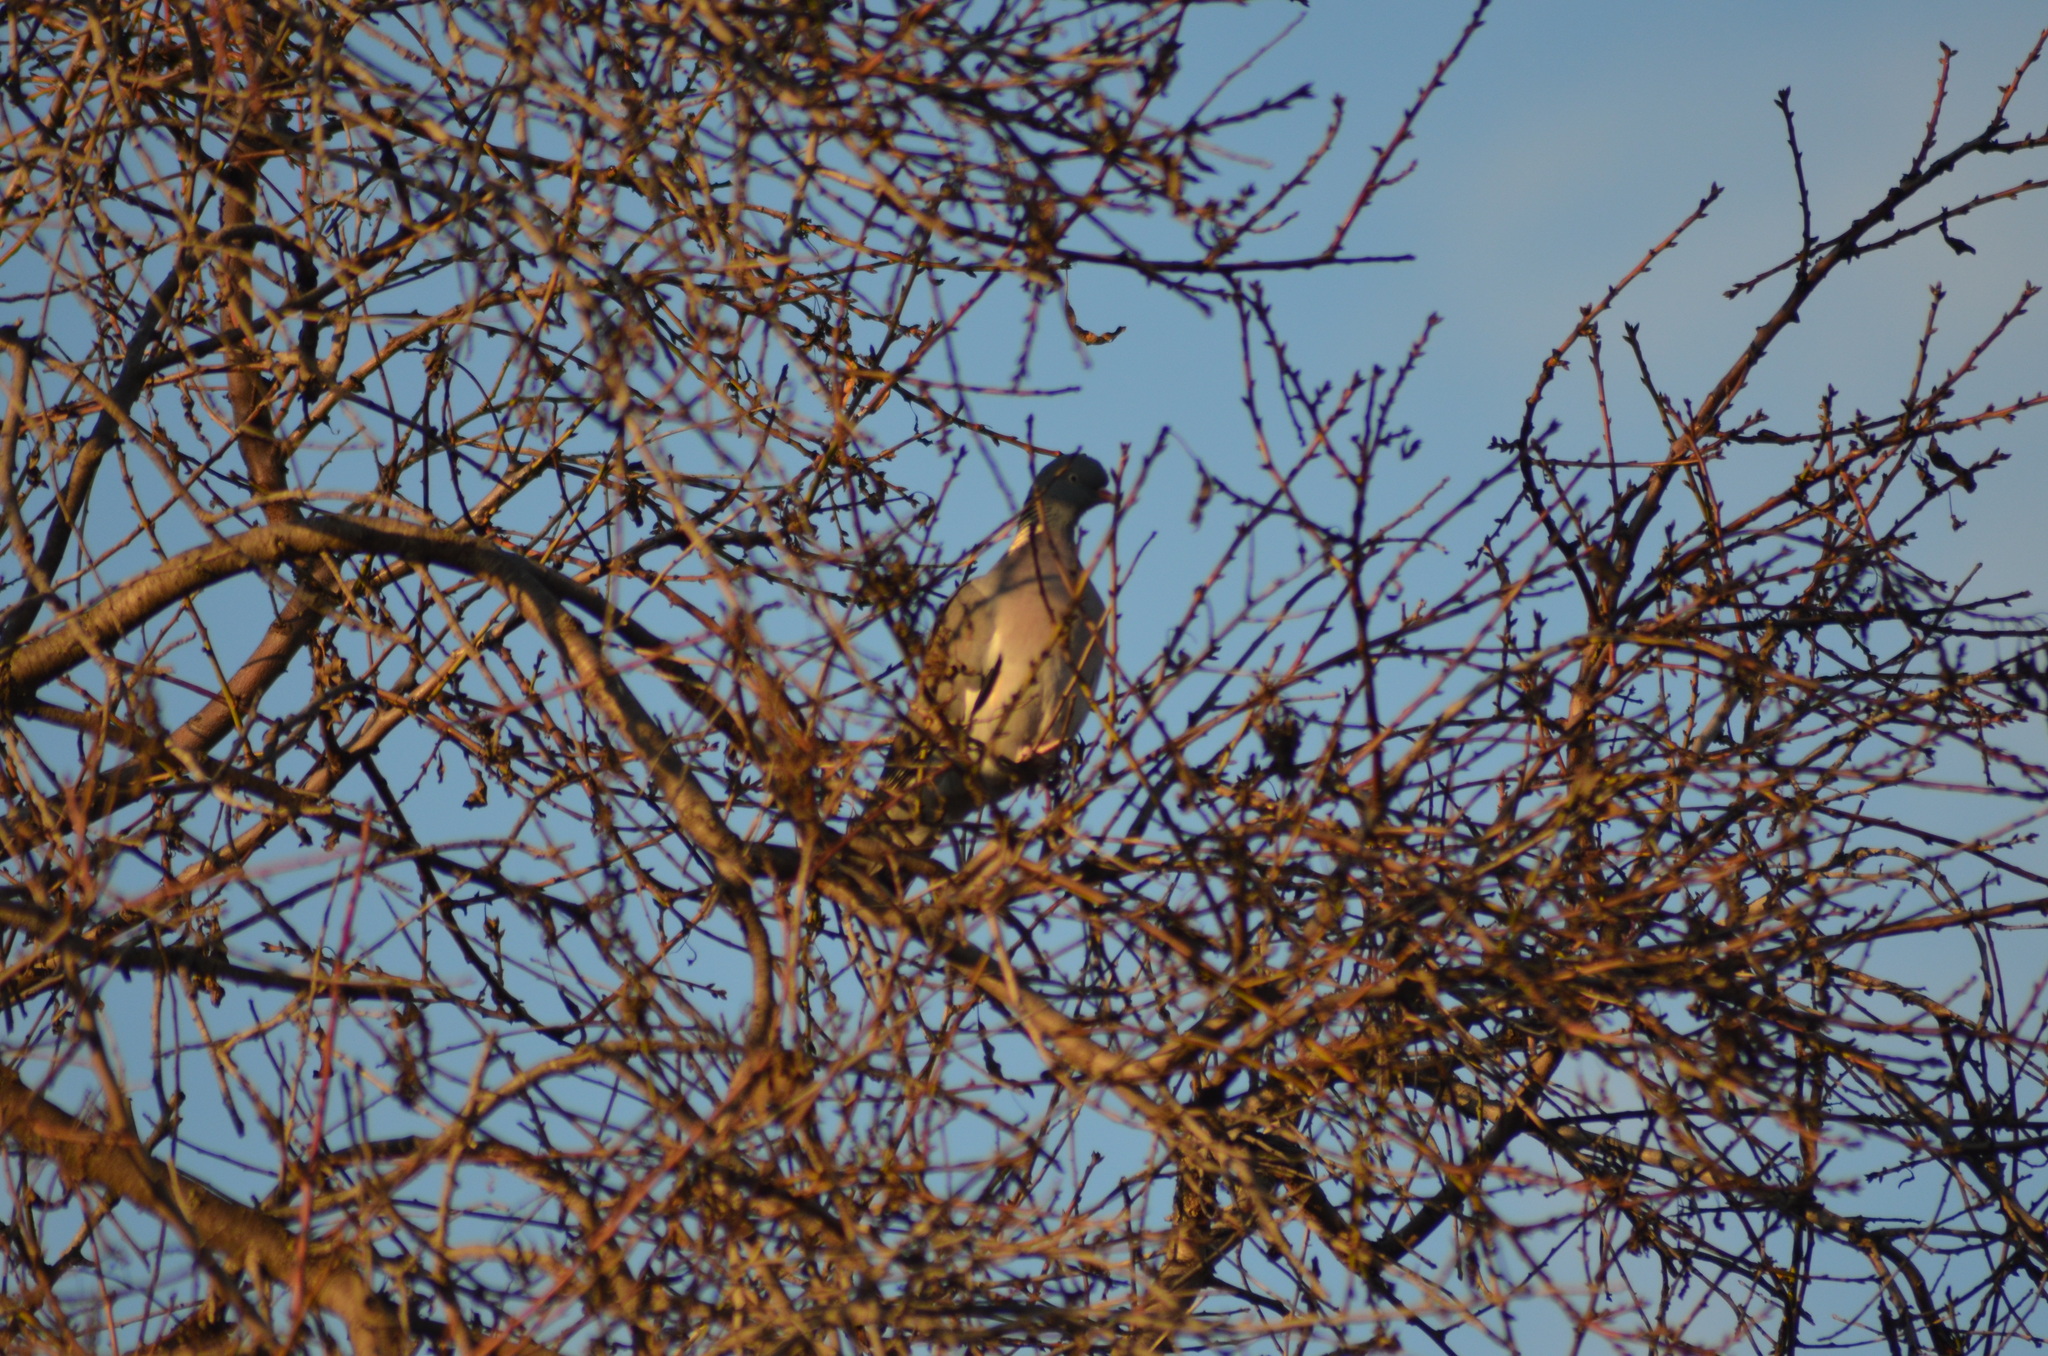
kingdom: Animalia
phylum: Chordata
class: Aves
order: Columbiformes
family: Columbidae
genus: Columba
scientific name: Columba palumbus
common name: Common wood pigeon
